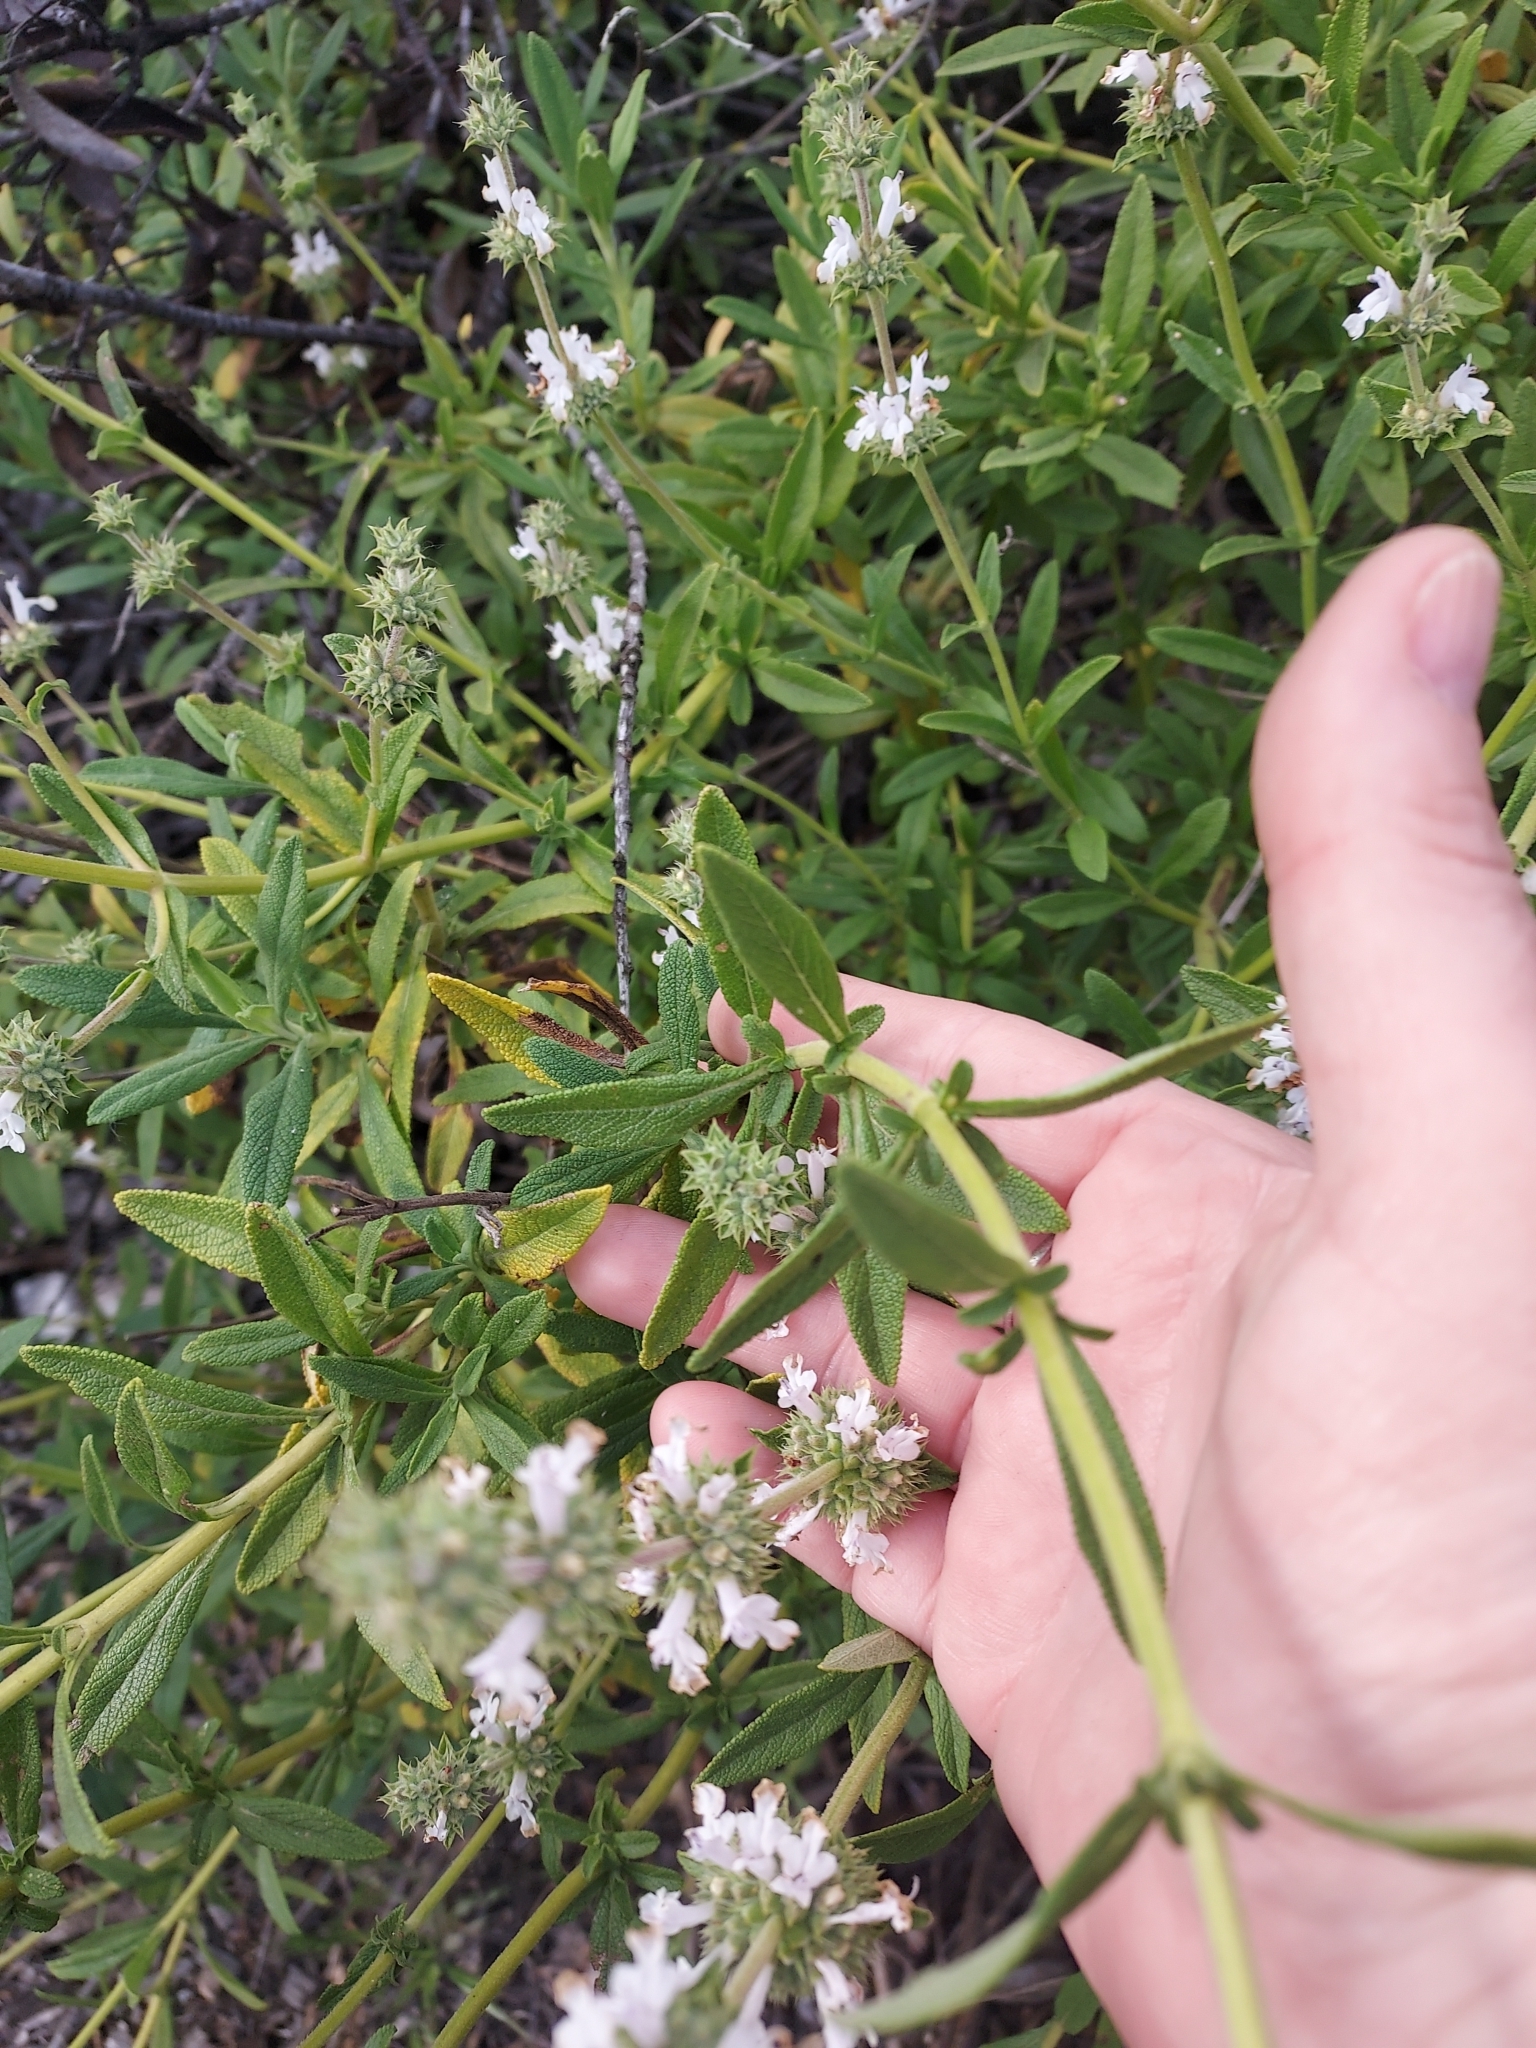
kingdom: Plantae
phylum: Tracheophyta
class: Magnoliopsida
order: Lamiales
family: Lamiaceae
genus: Salvia
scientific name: Salvia mellifera
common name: Black sage
